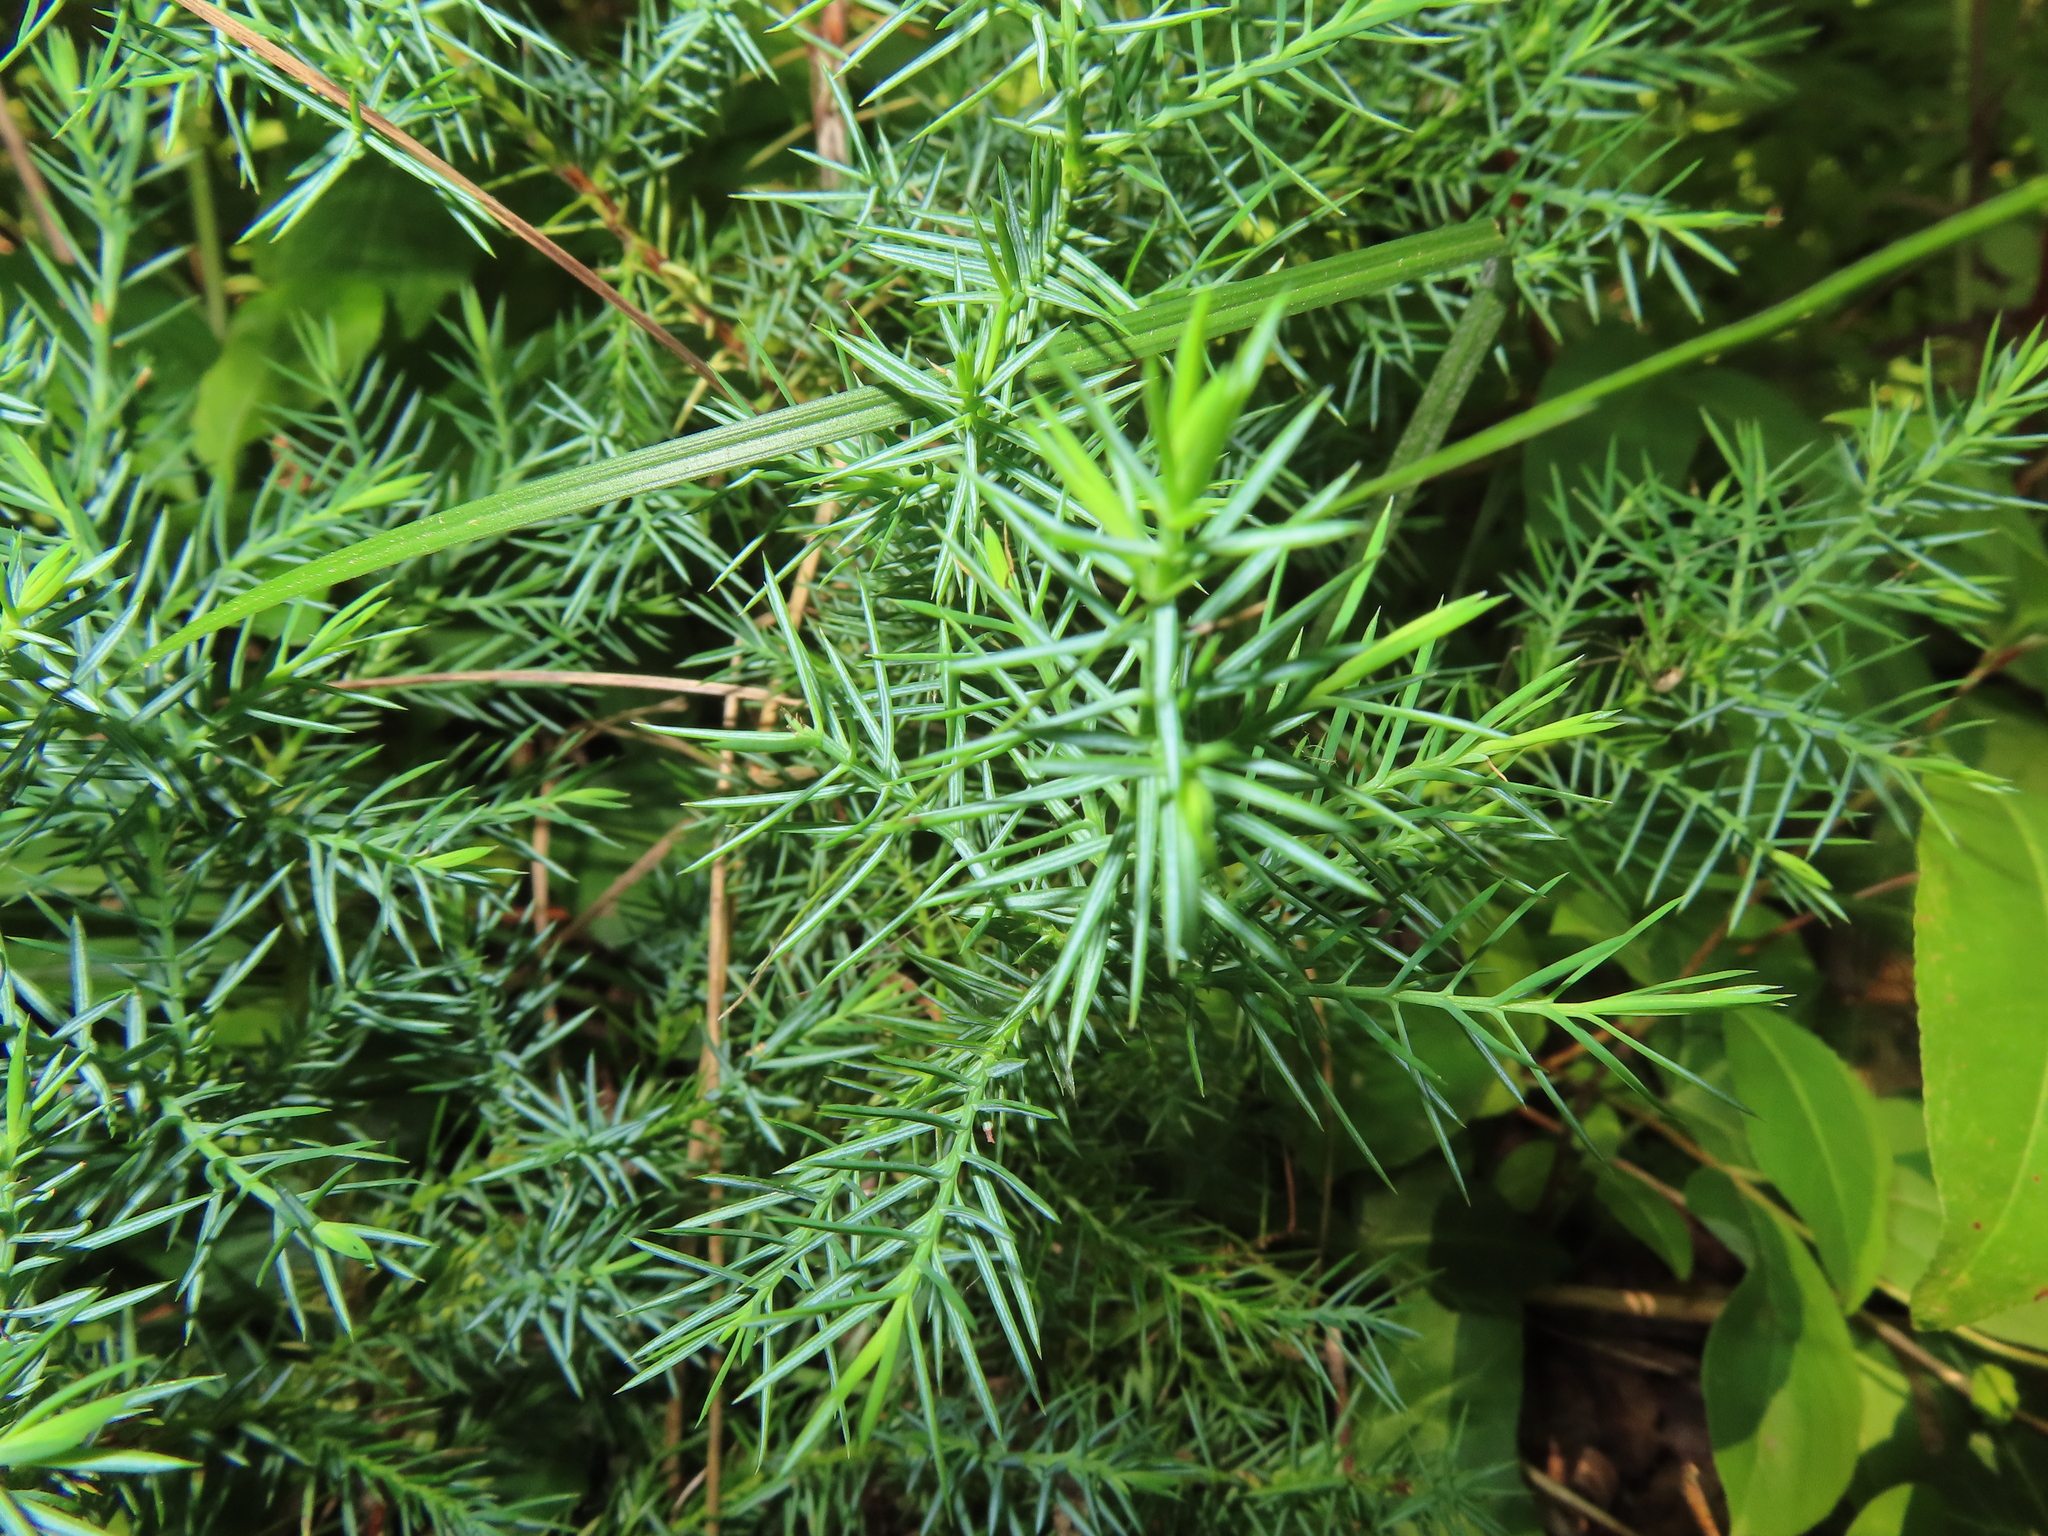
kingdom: Plantae
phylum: Tracheophyta
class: Pinopsida
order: Pinales
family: Cupressaceae
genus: Juniperus
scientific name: Juniperus virginiana
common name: Red juniper
